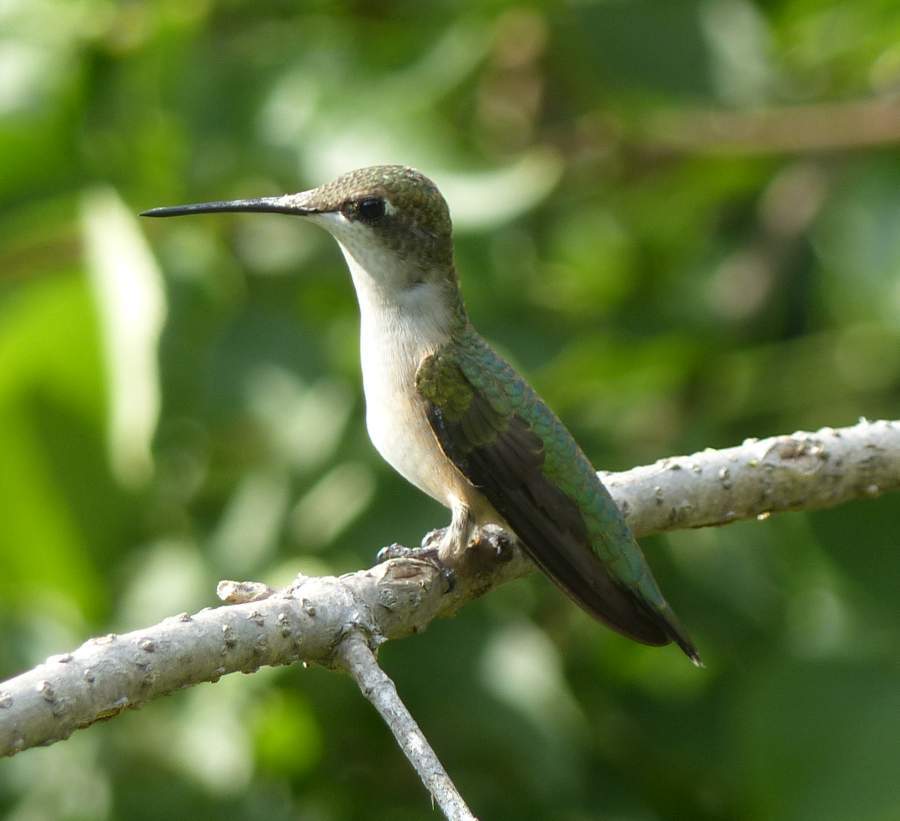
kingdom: Animalia
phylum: Chordata
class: Aves
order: Apodiformes
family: Trochilidae
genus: Archilochus
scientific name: Archilochus colubris
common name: Ruby-throated hummingbird
